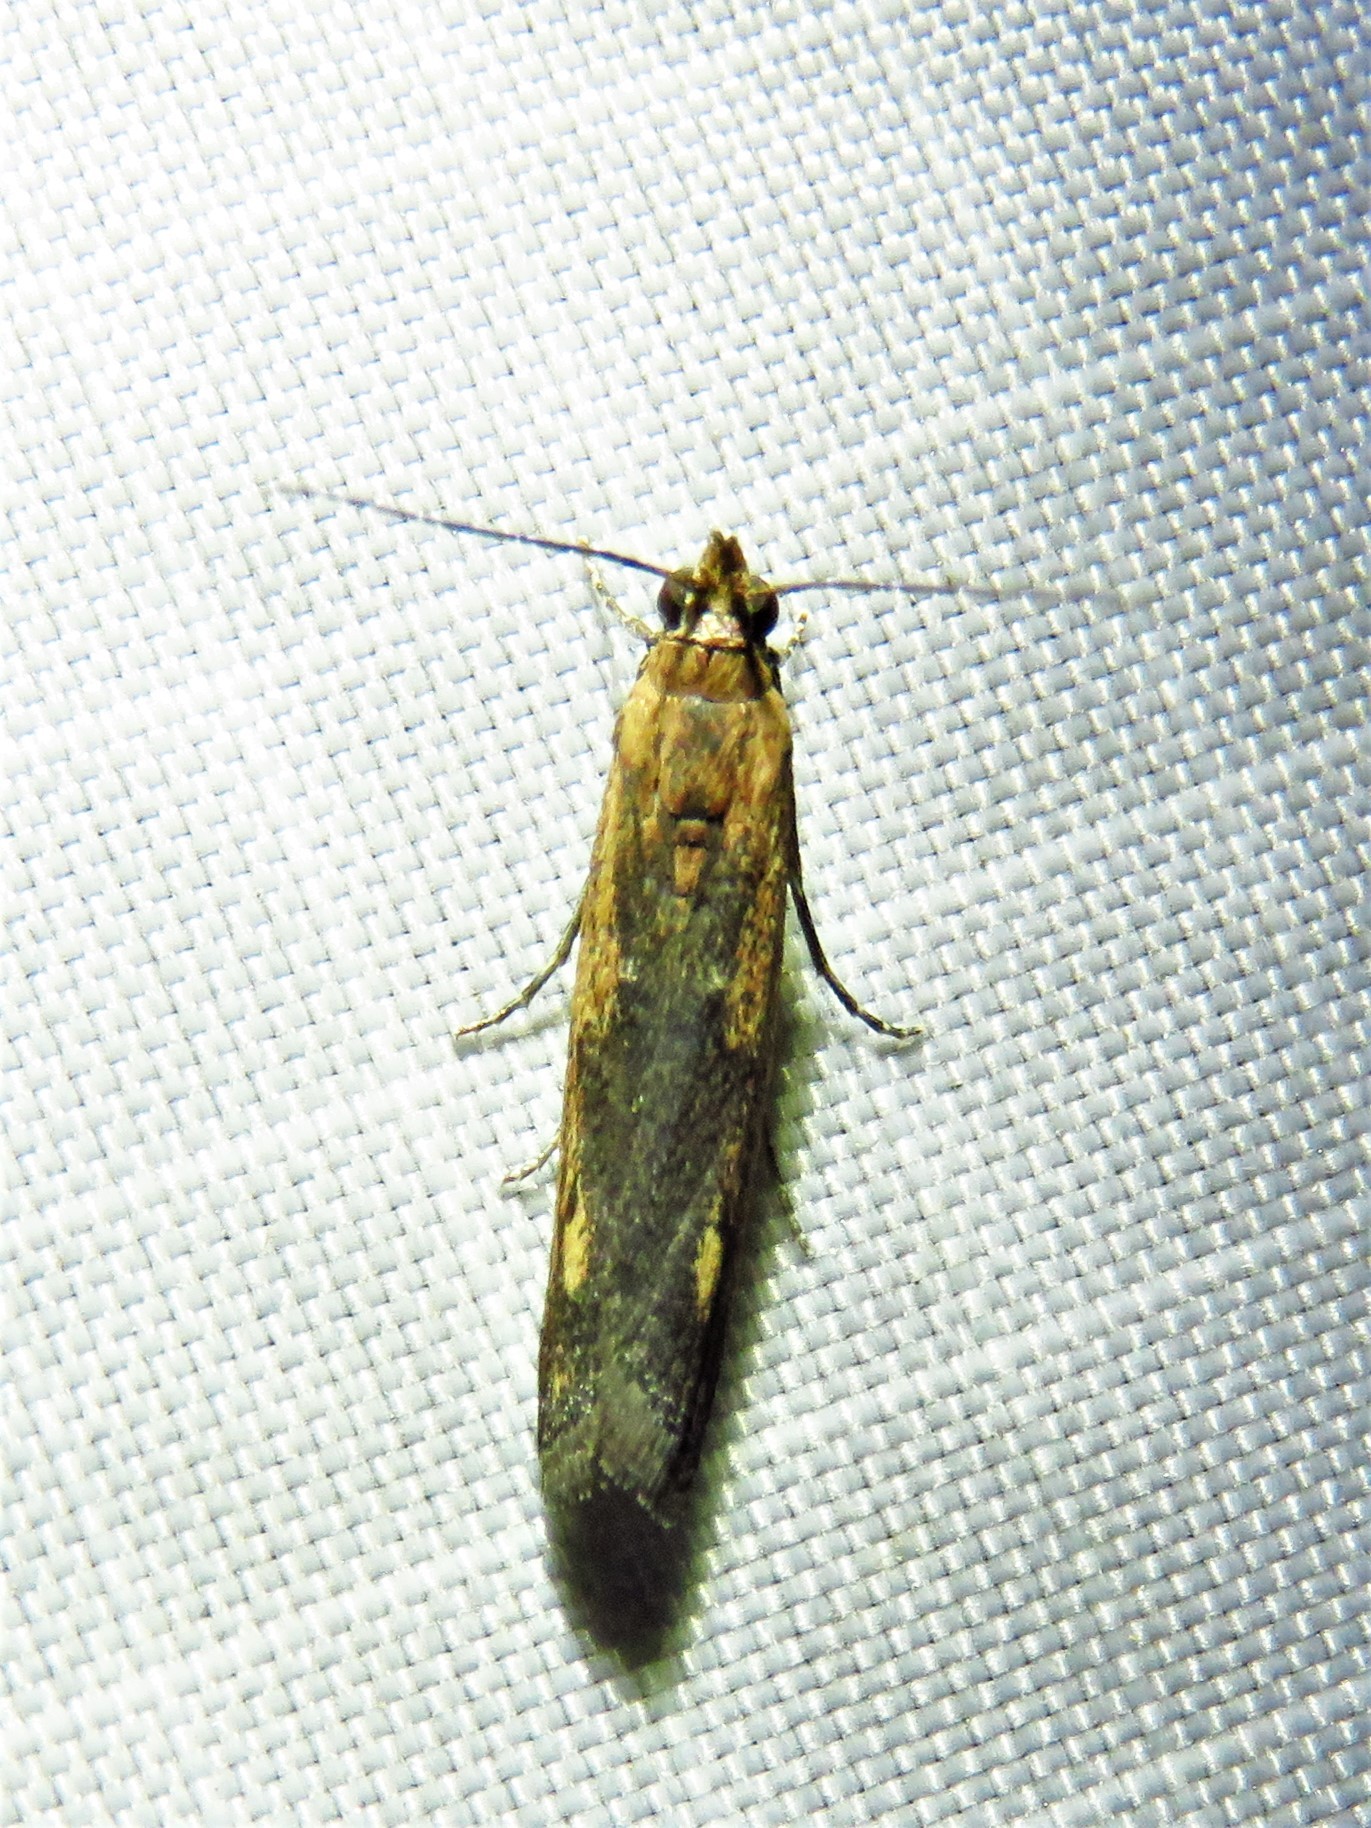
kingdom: Animalia
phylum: Arthropoda
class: Insecta
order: Lepidoptera
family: Pyralidae
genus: Elasmopalpus
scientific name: Elasmopalpus lignosella
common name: Lesser cornstalk borer
